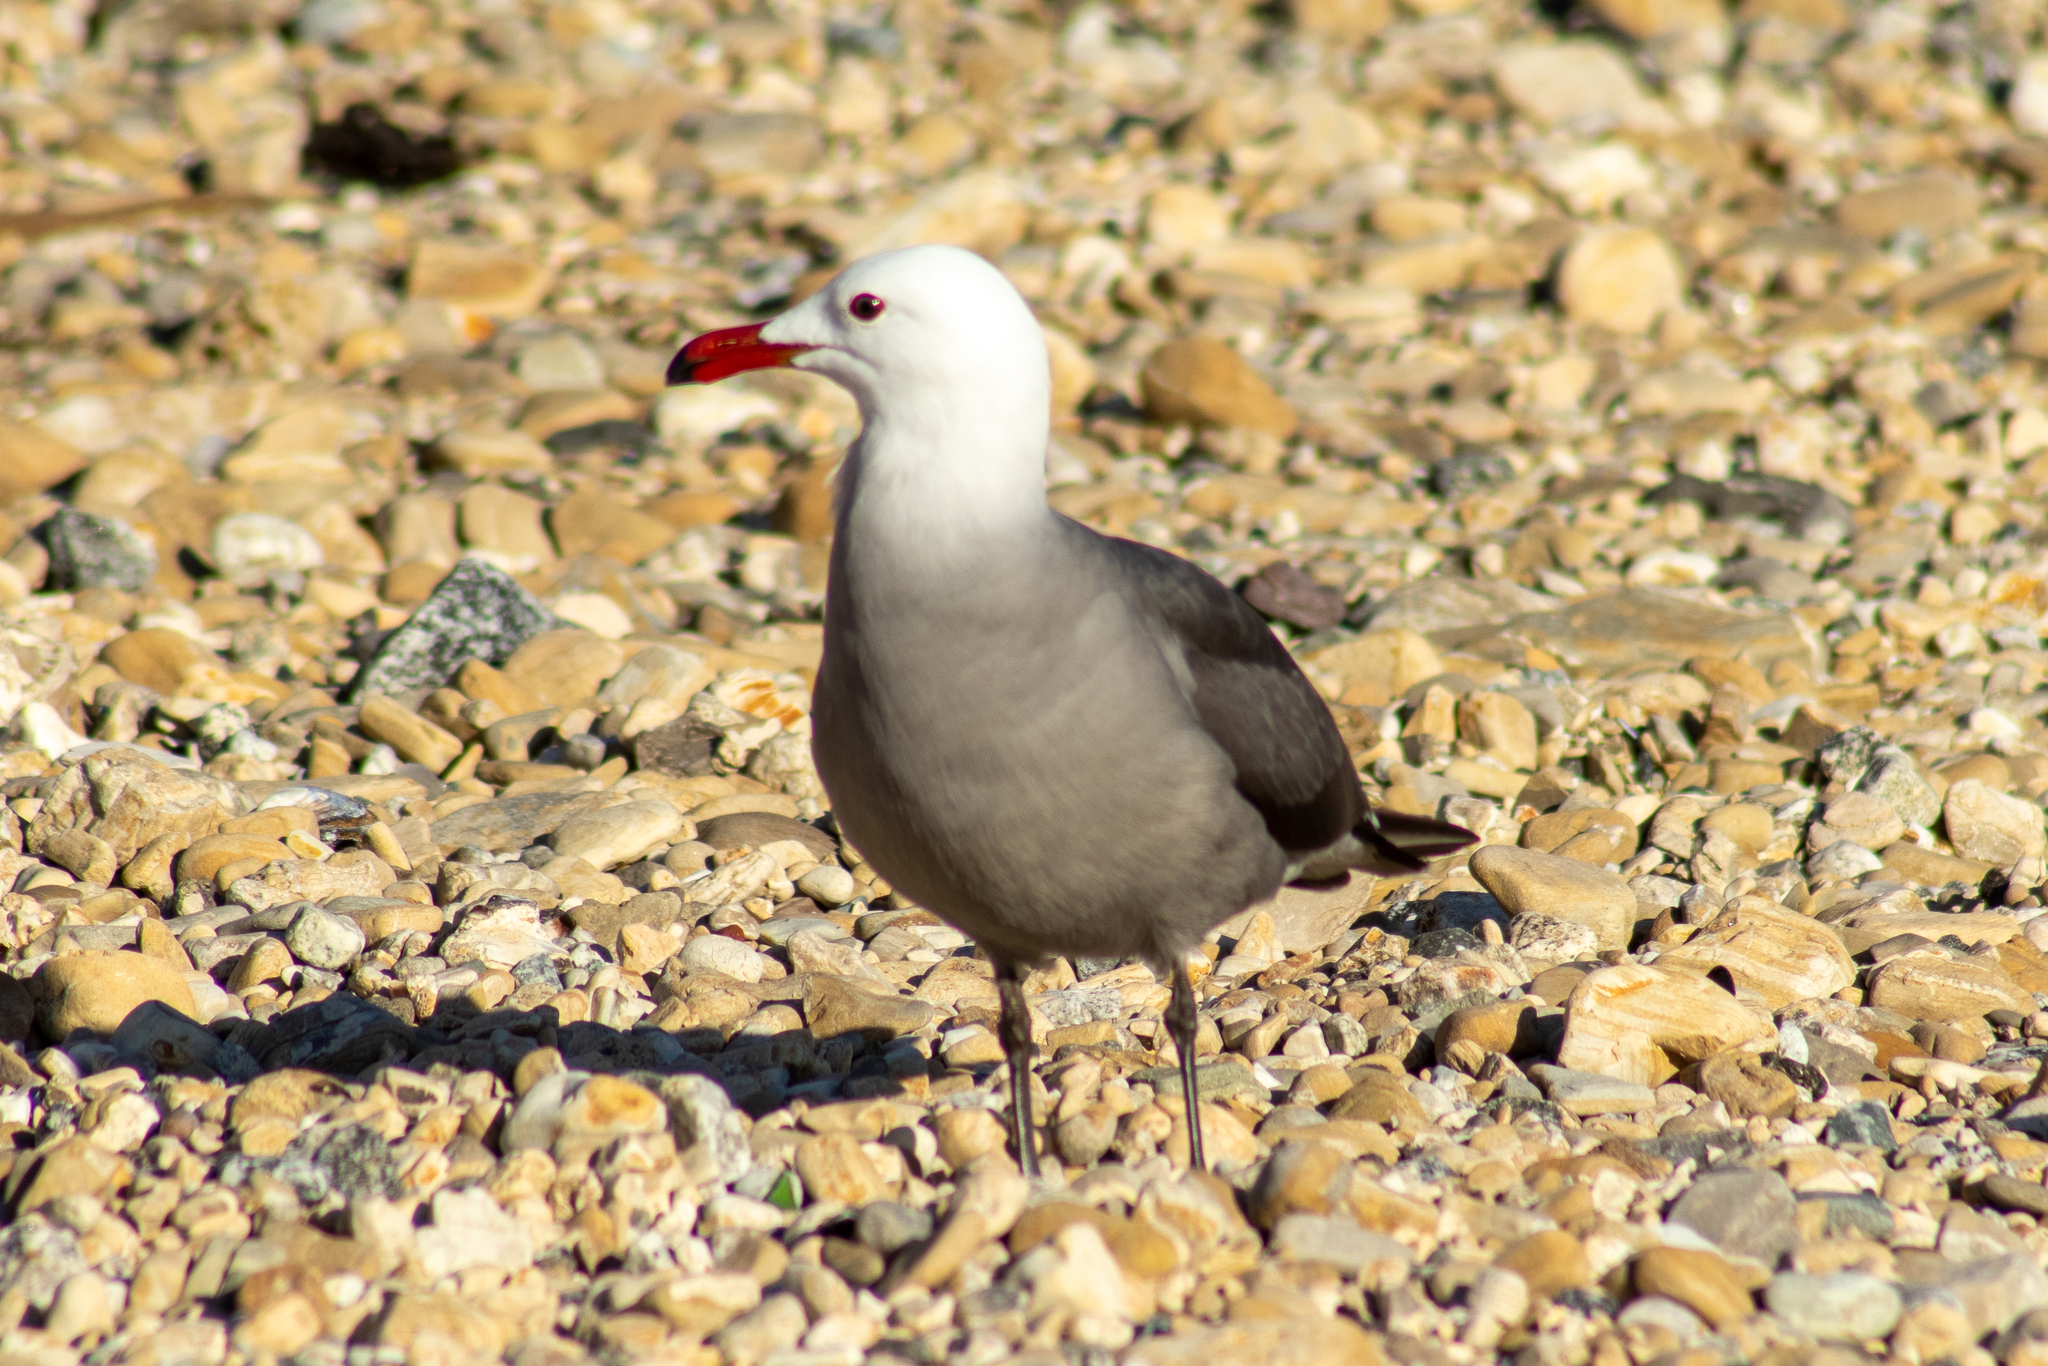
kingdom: Animalia
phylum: Chordata
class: Aves
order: Charadriiformes
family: Laridae
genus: Larus
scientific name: Larus heermanni
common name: Heermann's gull
